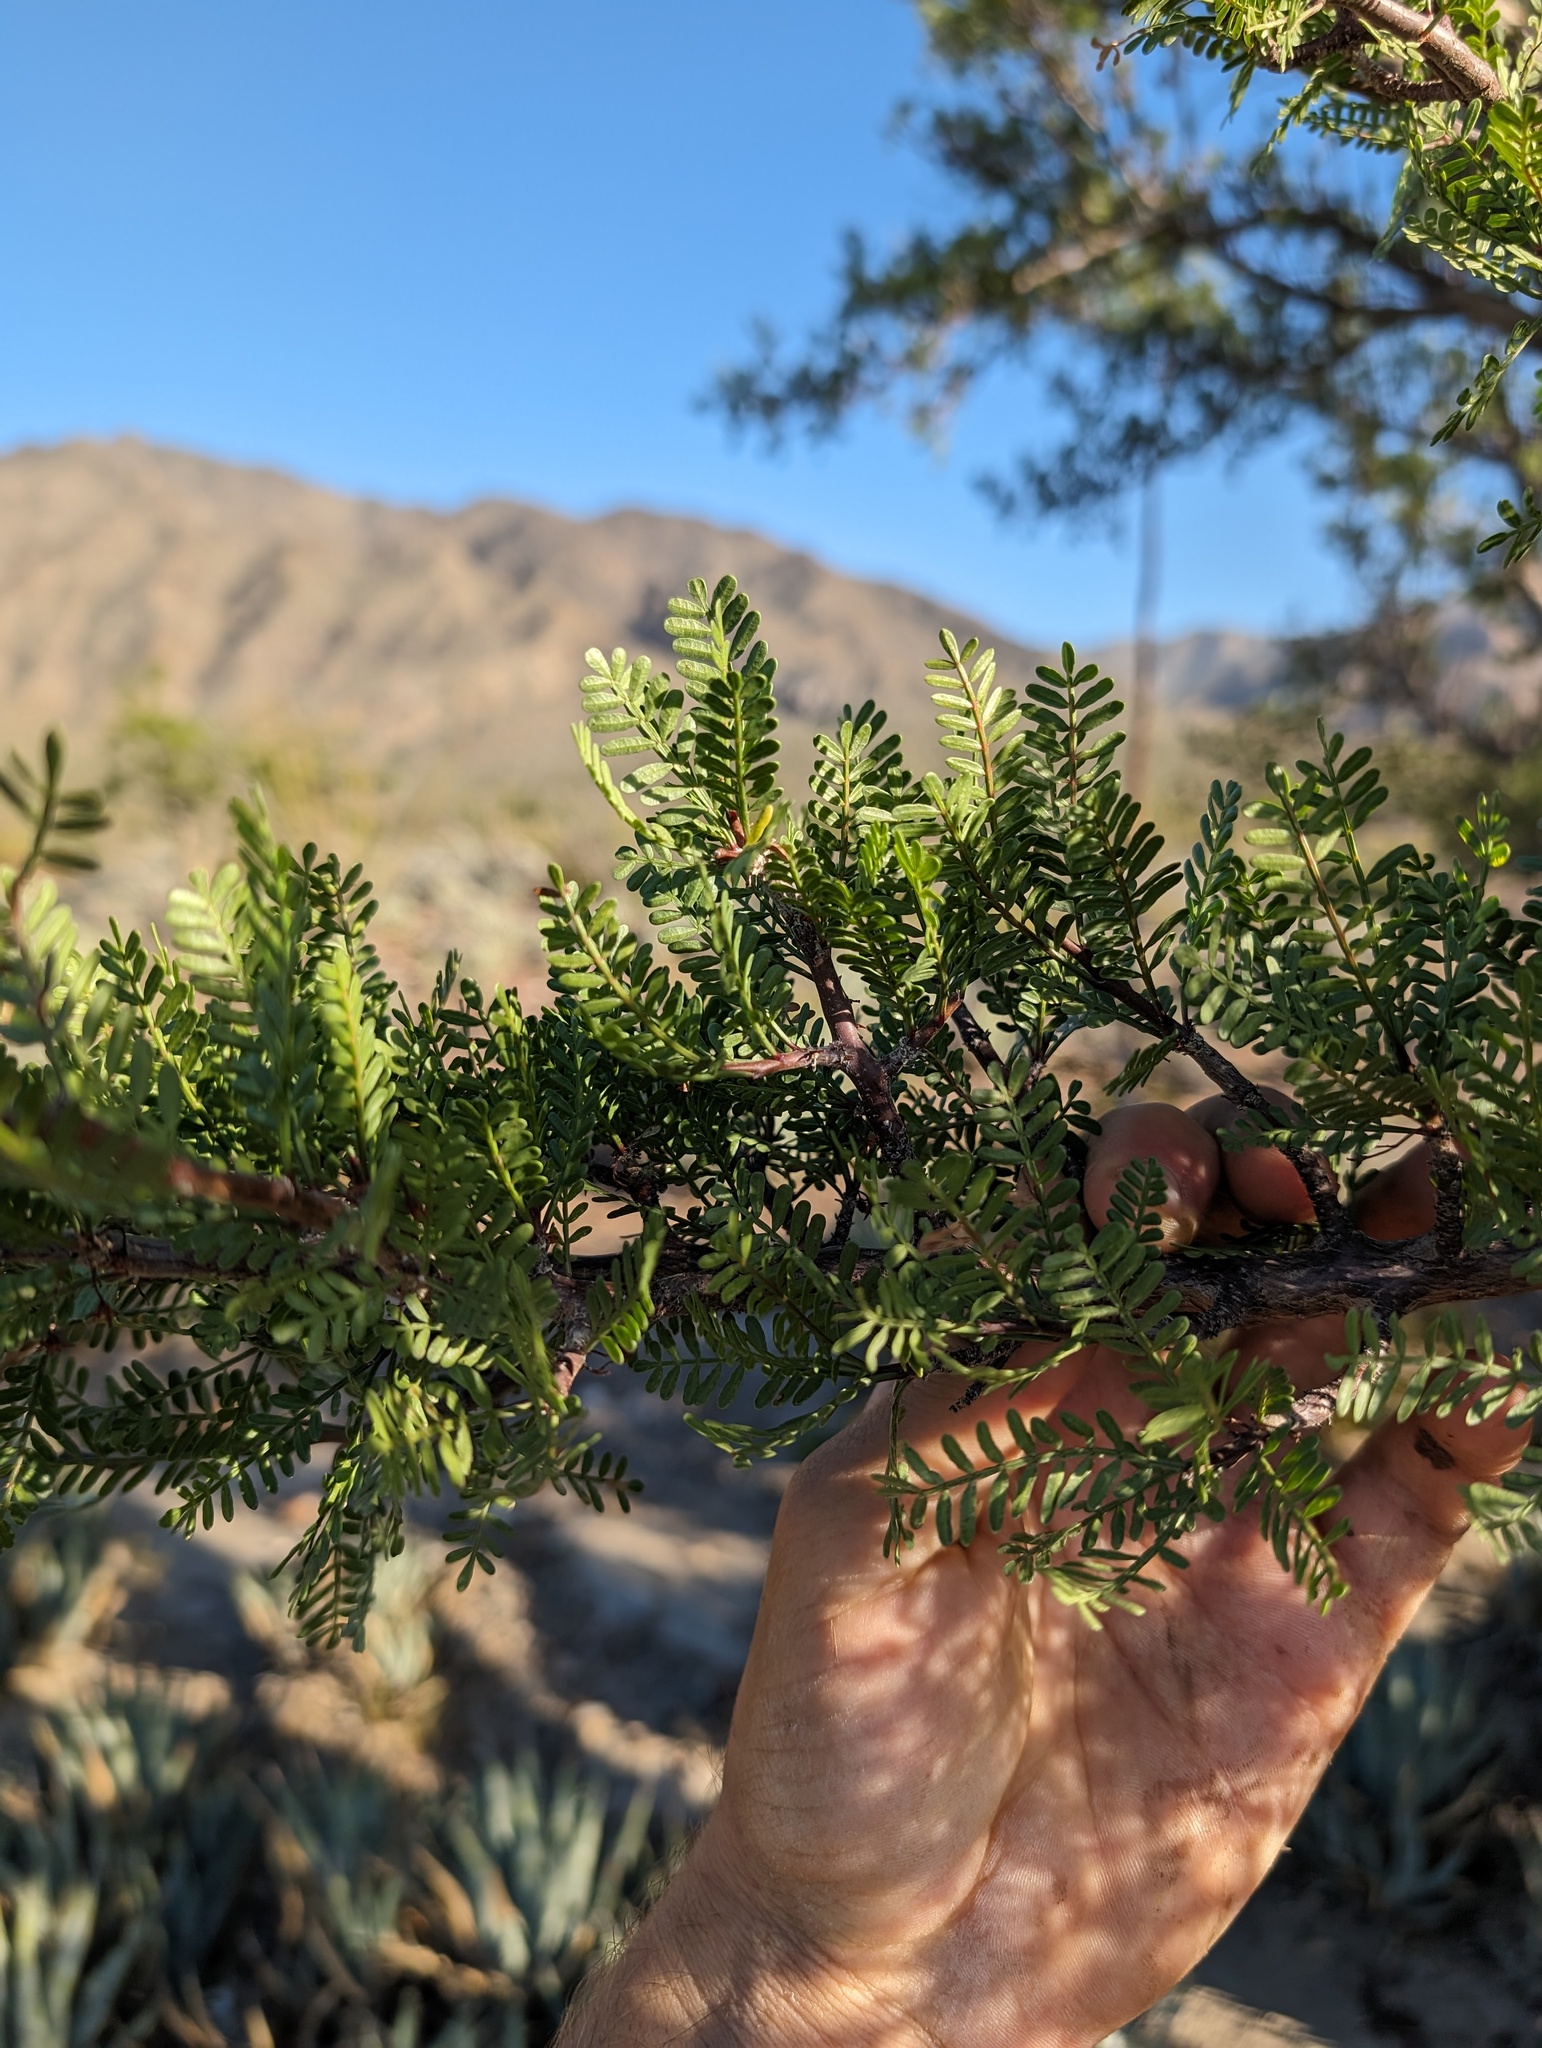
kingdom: Plantae
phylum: Tracheophyta
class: Magnoliopsida
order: Sapindales
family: Burseraceae
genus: Bursera
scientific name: Bursera microphylla
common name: Elephant tree
